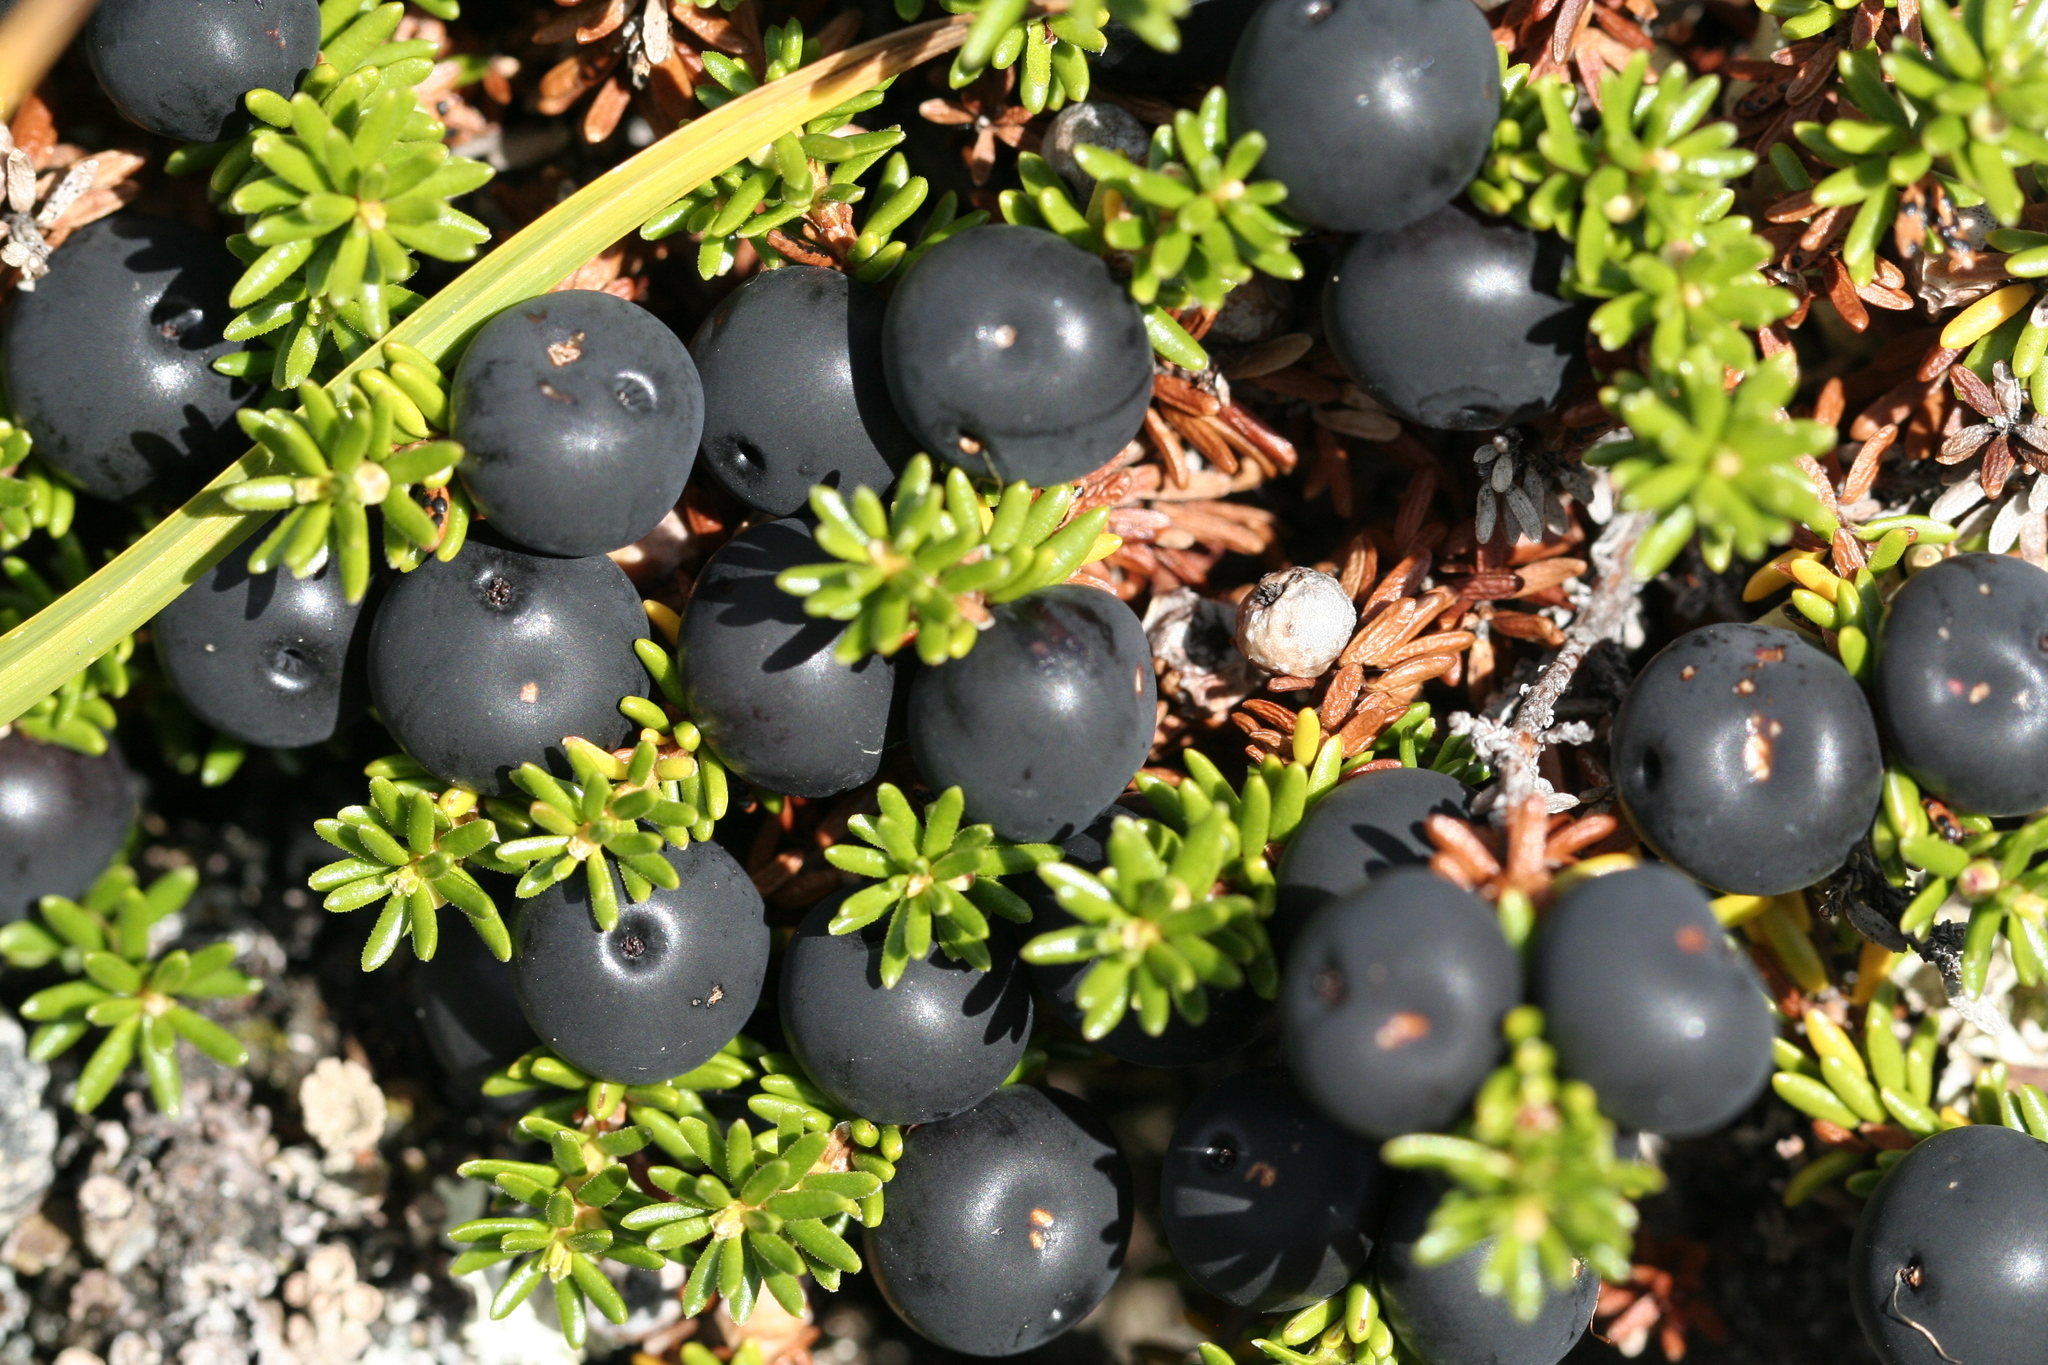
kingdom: Plantae
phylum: Tracheophyta
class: Magnoliopsida
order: Ericales
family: Ericaceae
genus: Empetrum
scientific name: Empetrum nigrum
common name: Black crowberry
